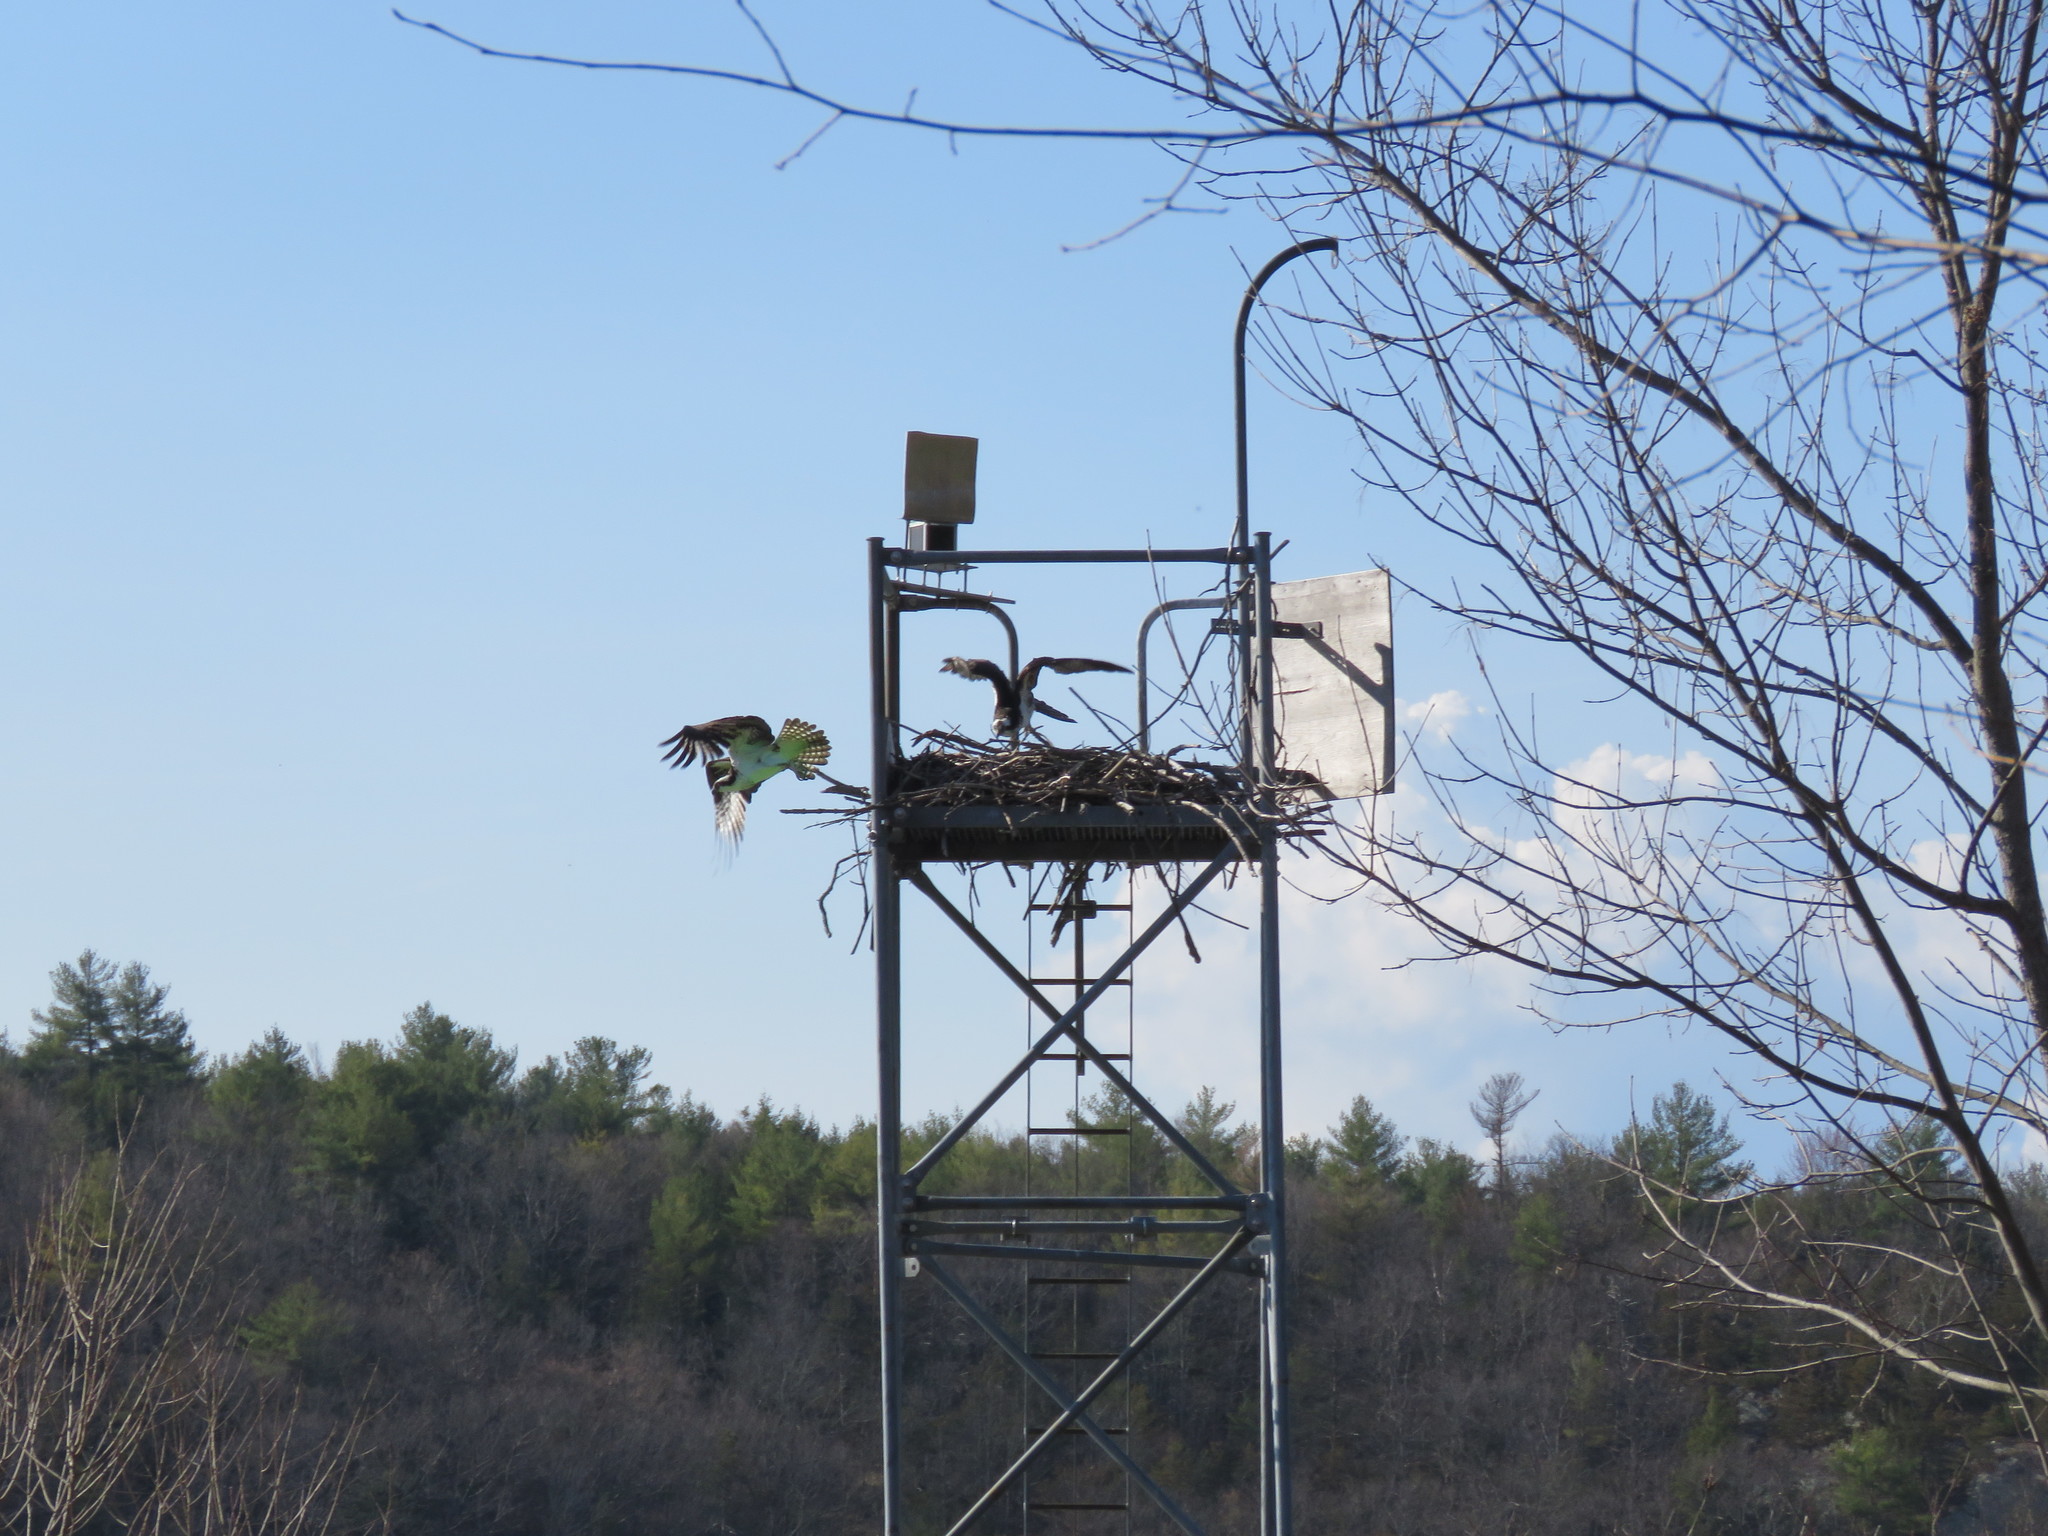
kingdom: Animalia
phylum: Chordata
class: Aves
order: Accipitriformes
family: Pandionidae
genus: Pandion
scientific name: Pandion haliaetus
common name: Osprey
